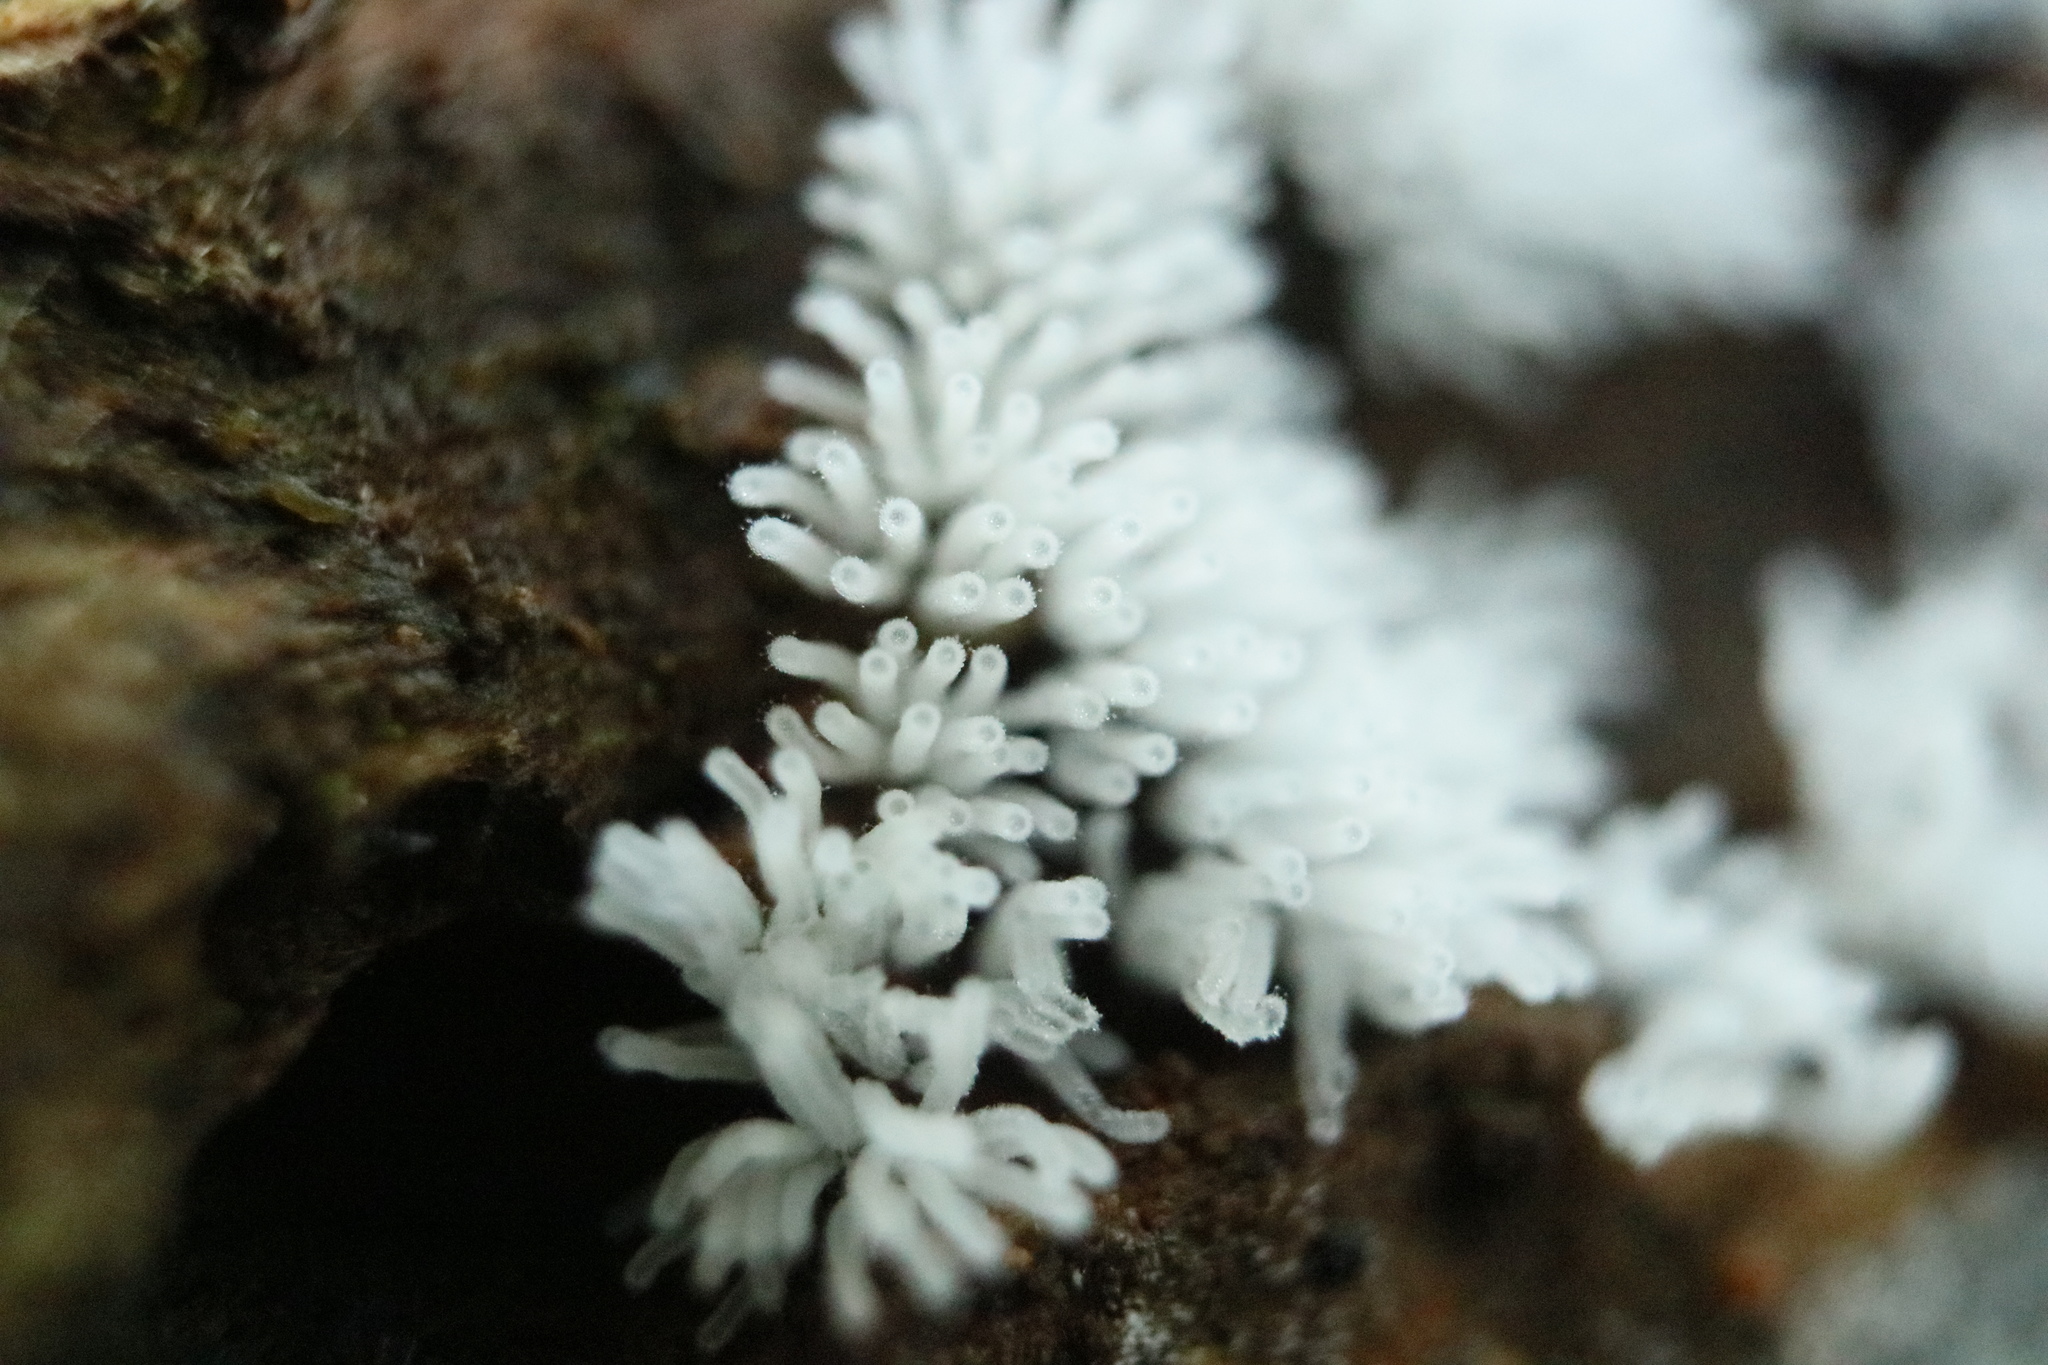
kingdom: Protozoa
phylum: Mycetozoa
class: Protosteliomycetes
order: Ceratiomyxales
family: Ceratiomyxaceae
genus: Ceratiomyxa
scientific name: Ceratiomyxa fruticulosa
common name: Honeycomb coral slime mold
